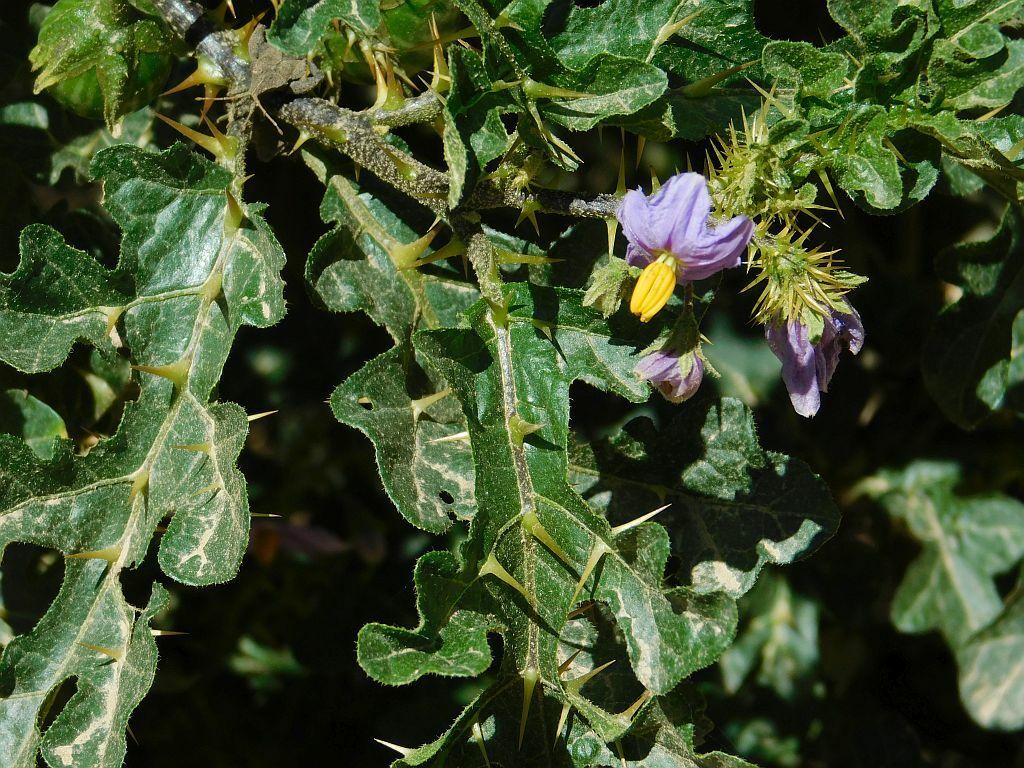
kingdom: Plantae
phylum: Tracheophyta
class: Magnoliopsida
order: Solanales
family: Solanaceae
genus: Solanum
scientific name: Solanum linnaeanum
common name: Nightshade
